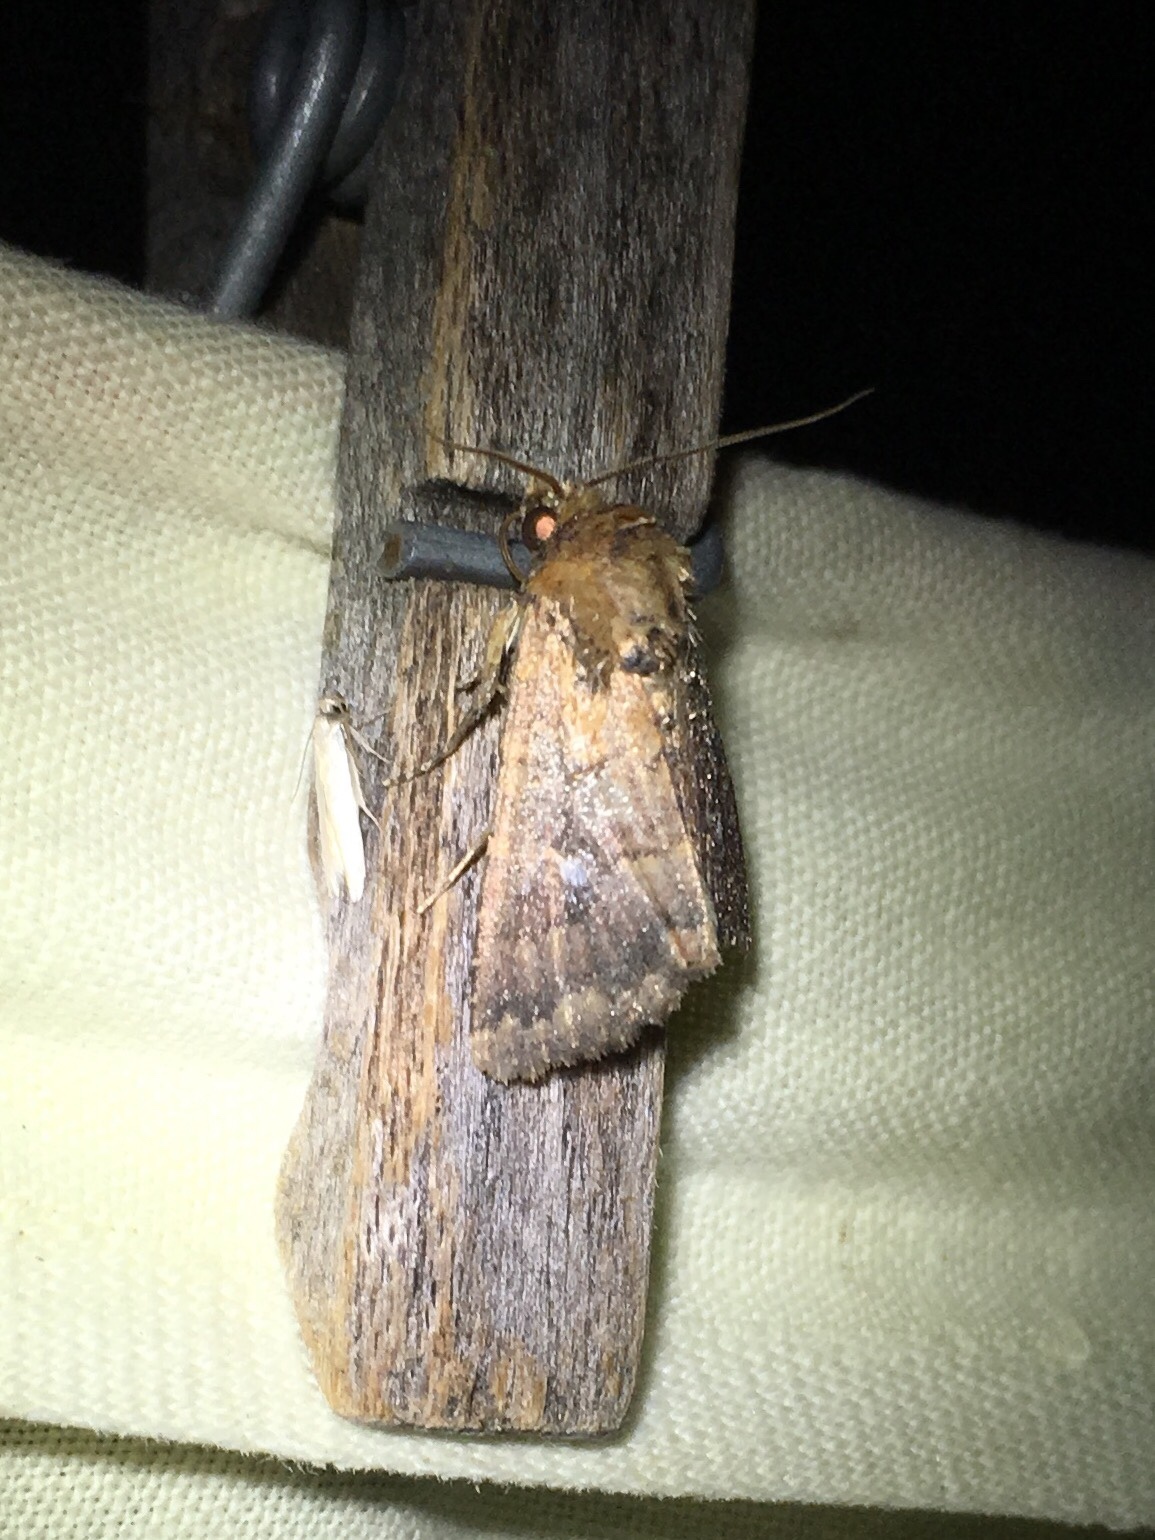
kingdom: Animalia
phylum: Arthropoda
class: Insecta
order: Lepidoptera
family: Noctuidae
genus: Condica
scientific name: Condica mobilis
